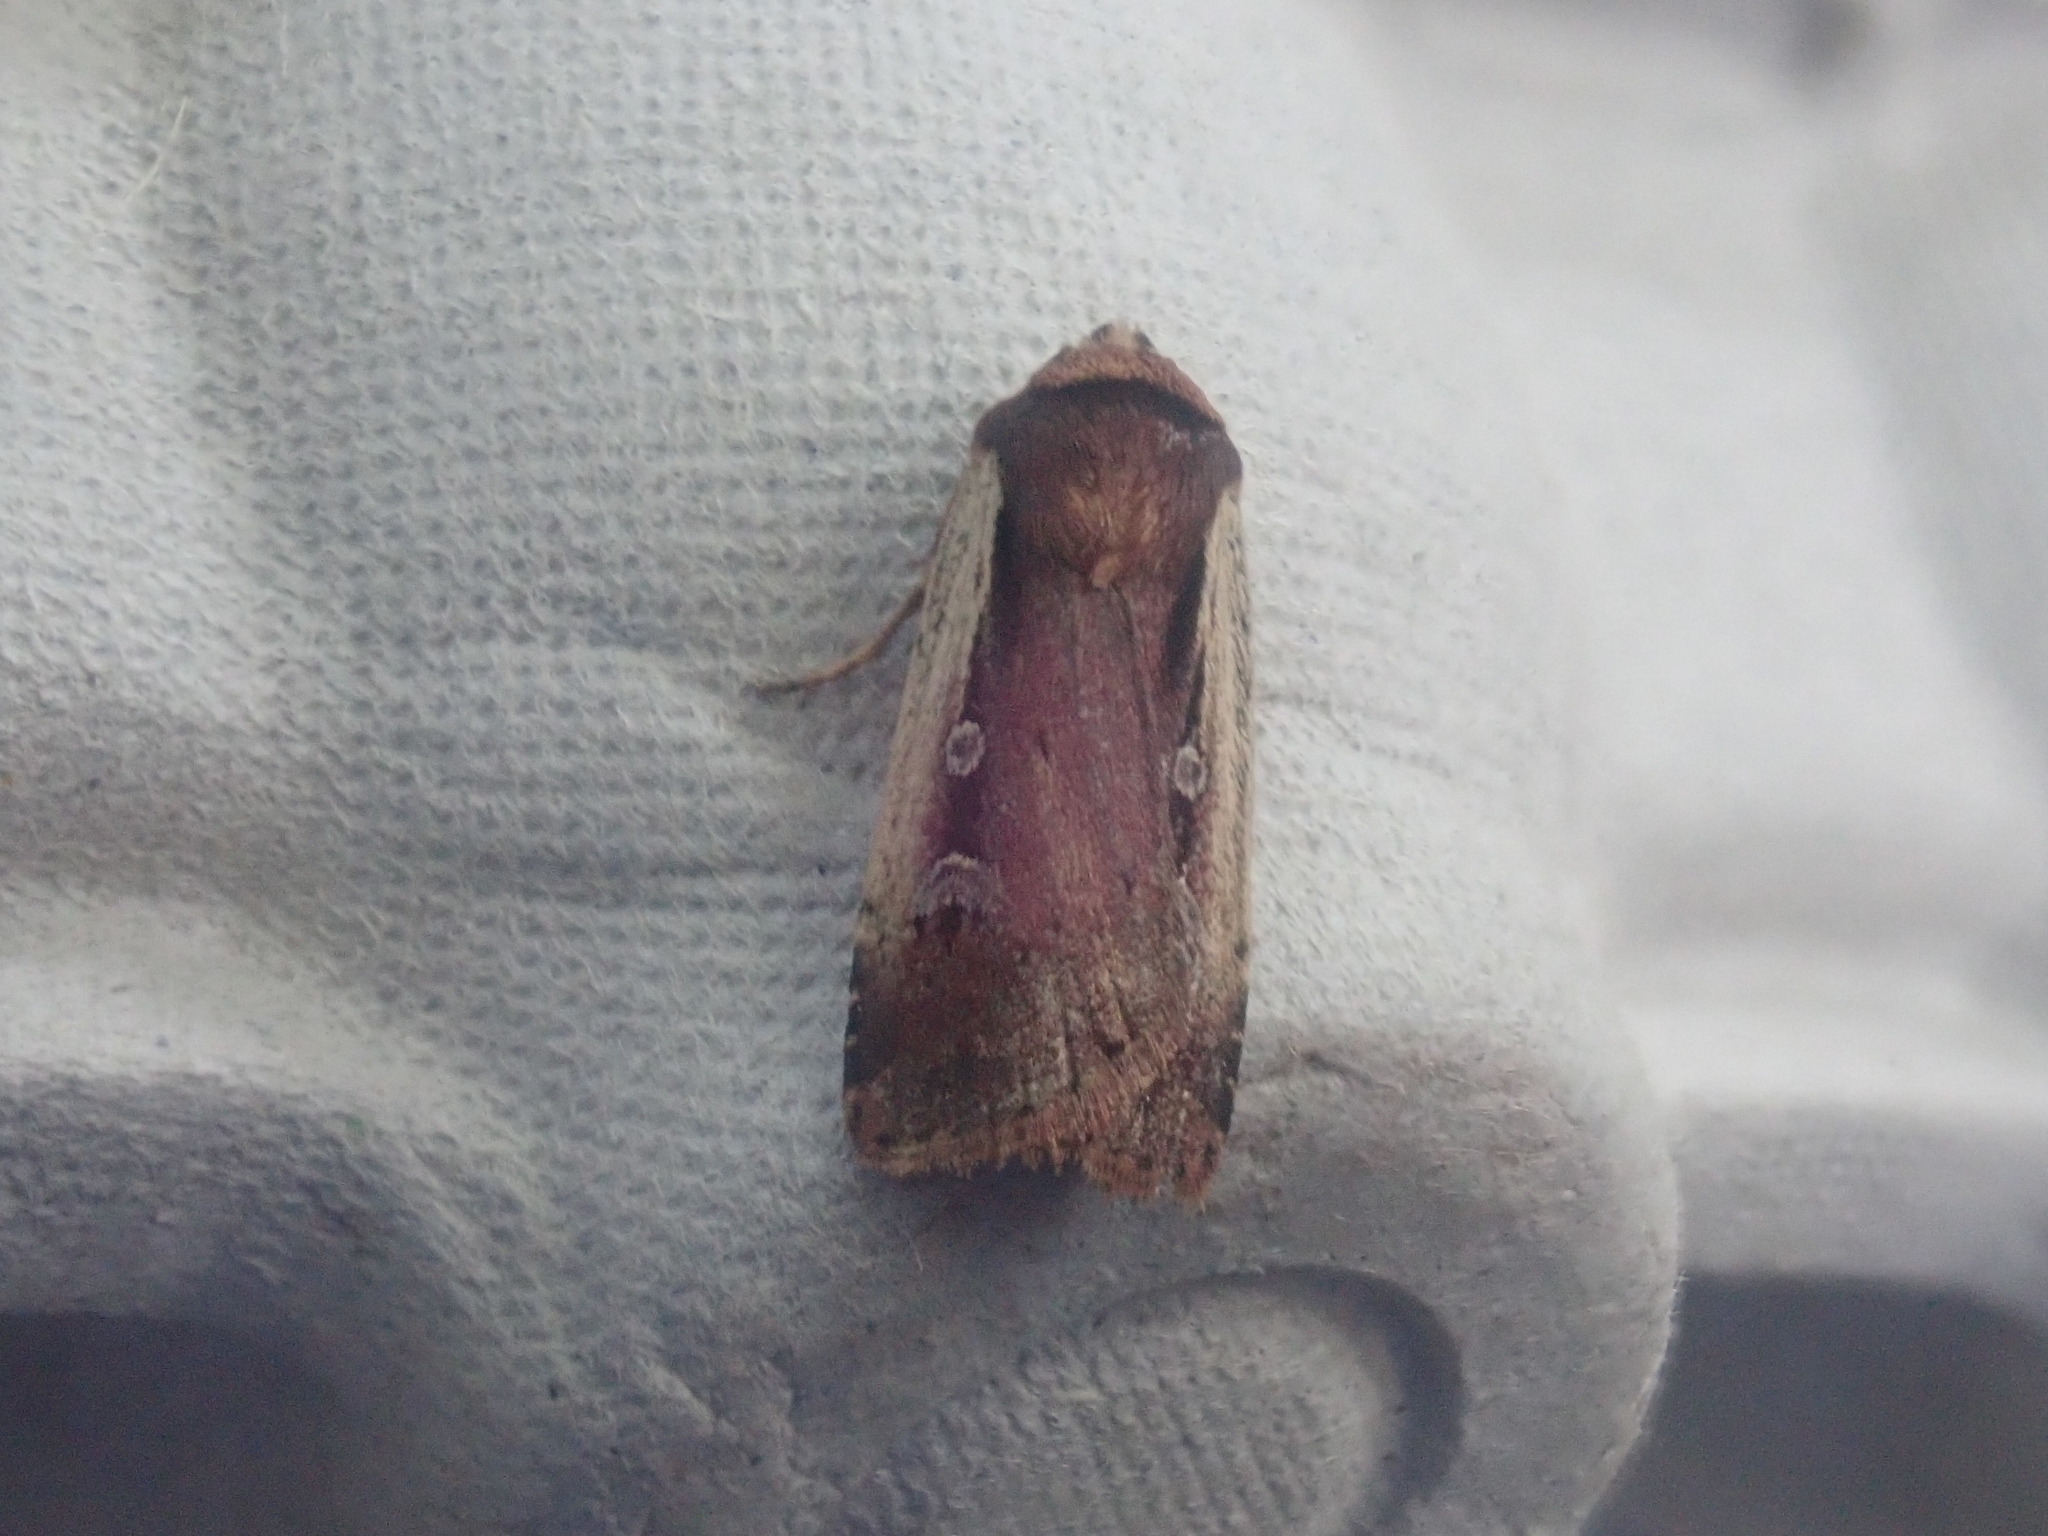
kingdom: Animalia
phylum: Arthropoda
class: Insecta
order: Lepidoptera
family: Noctuidae
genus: Ochropleura
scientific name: Ochropleura implecta
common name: Flame-shouldered dart
